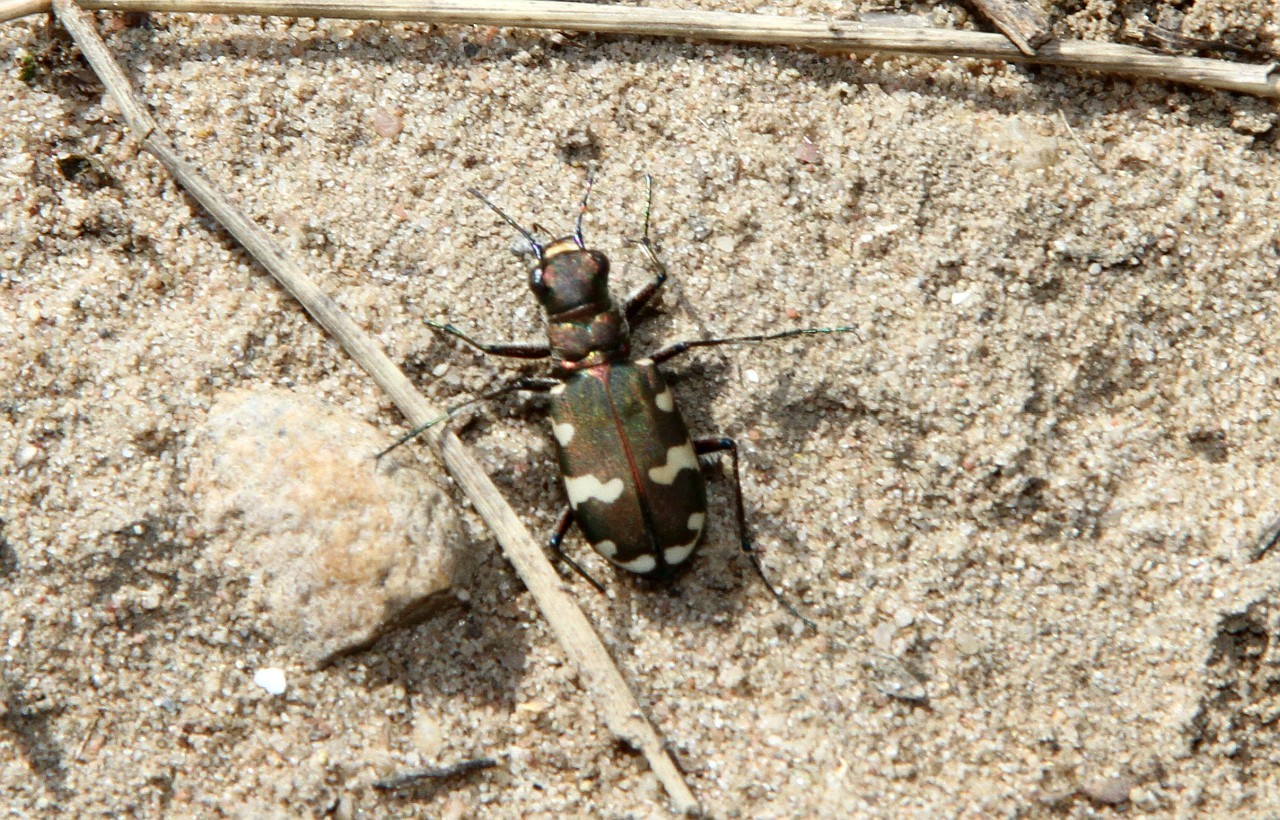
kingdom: Animalia
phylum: Arthropoda
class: Insecta
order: Coleoptera
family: Carabidae
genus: Cicindela
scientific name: Cicindela hybrida
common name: Northern dune tiger beetle
